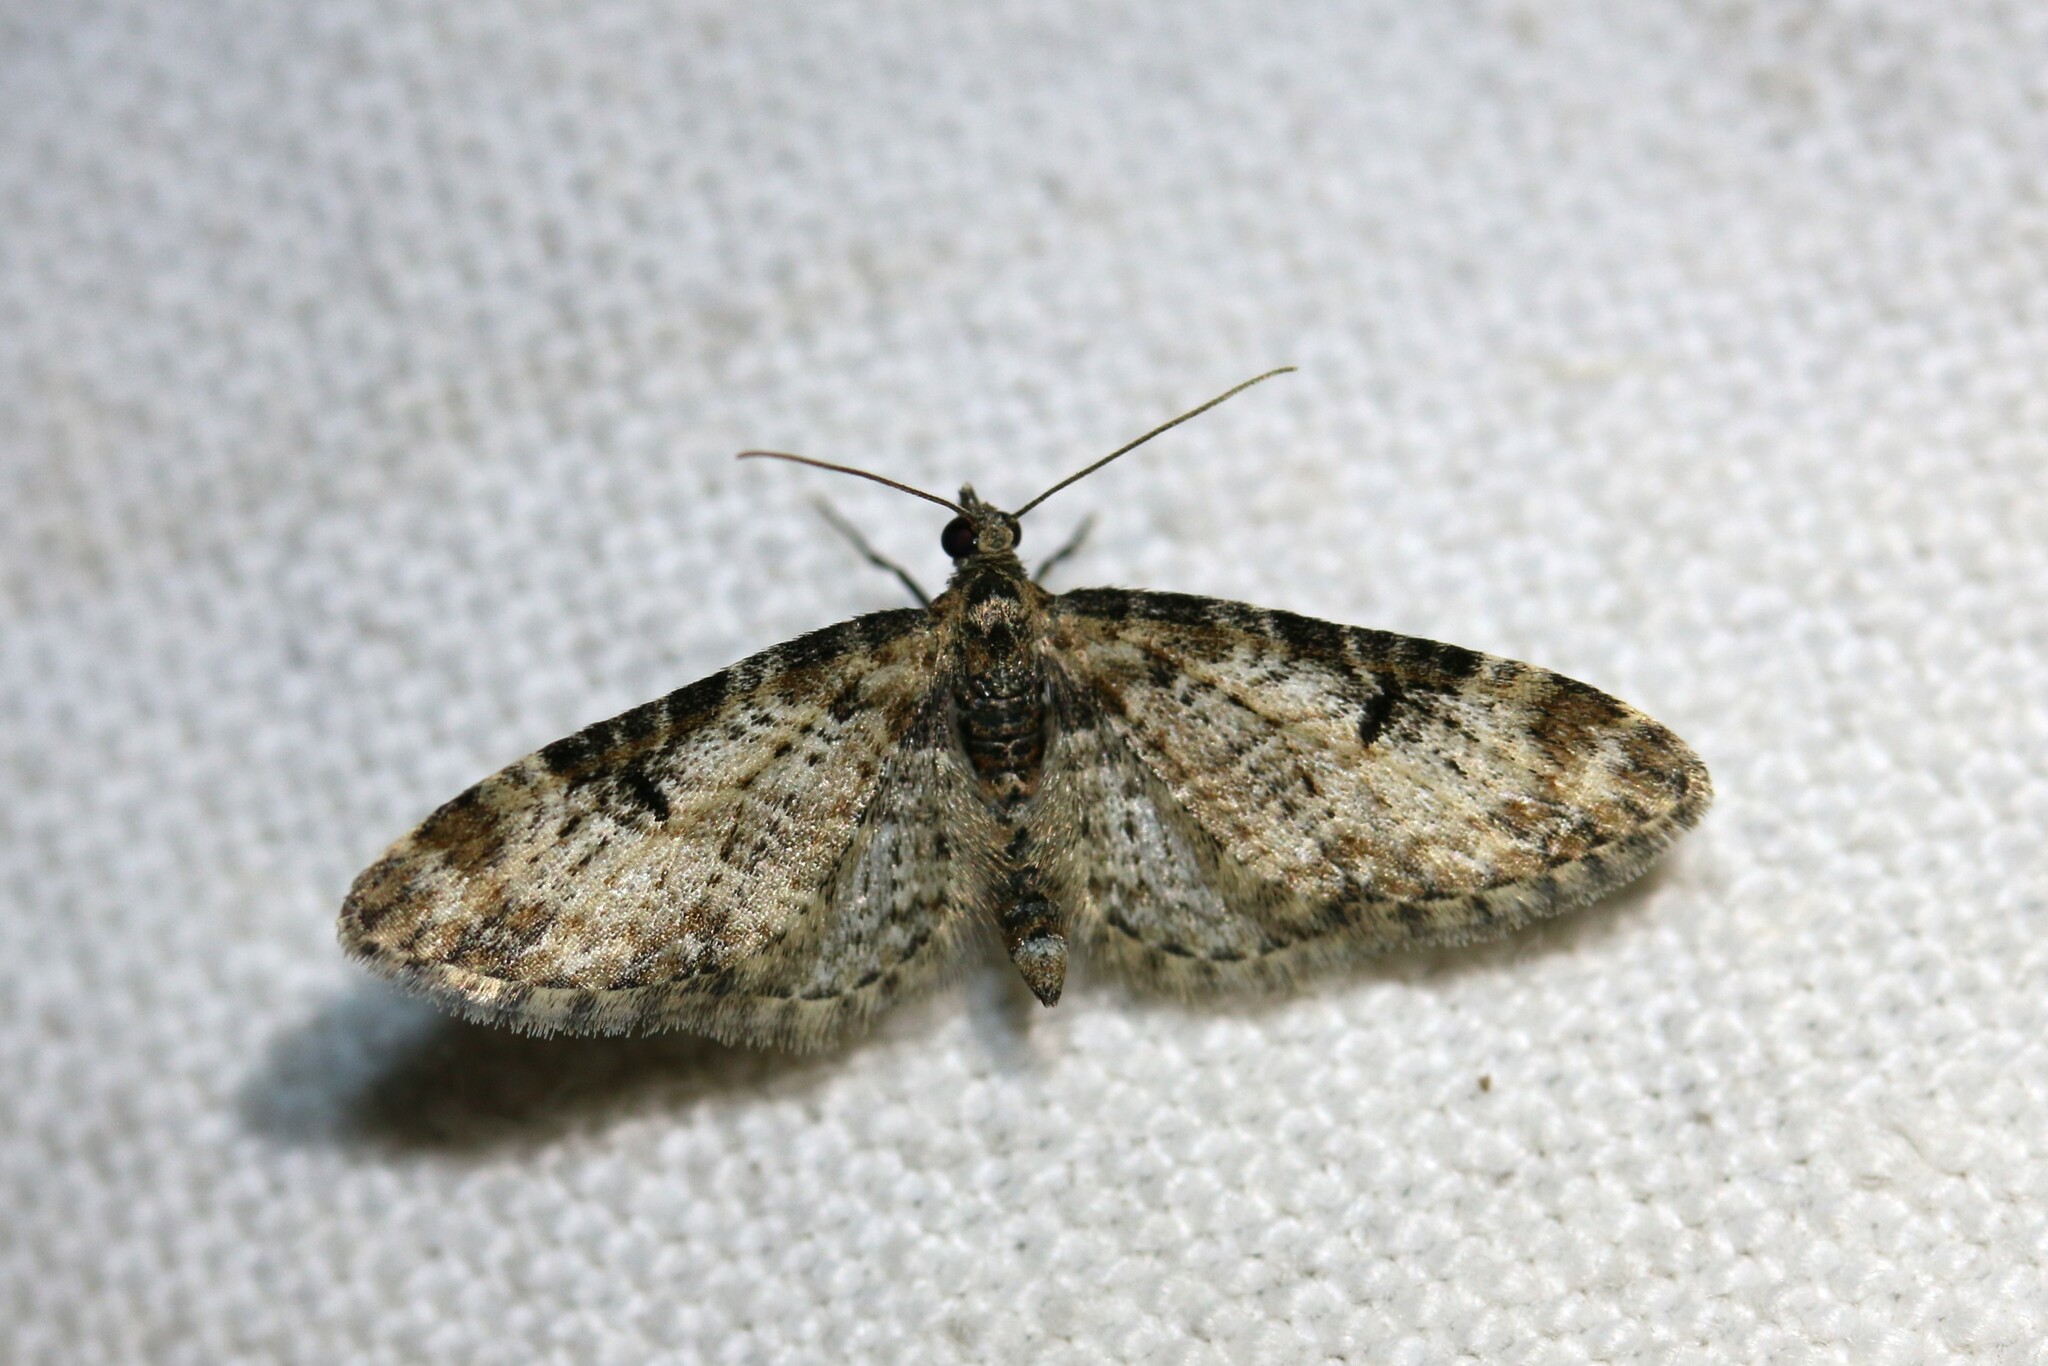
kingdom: Animalia
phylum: Arthropoda
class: Insecta
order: Lepidoptera
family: Geometridae
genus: Eupithecia
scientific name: Eupithecia irriguata
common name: Marbled pug
